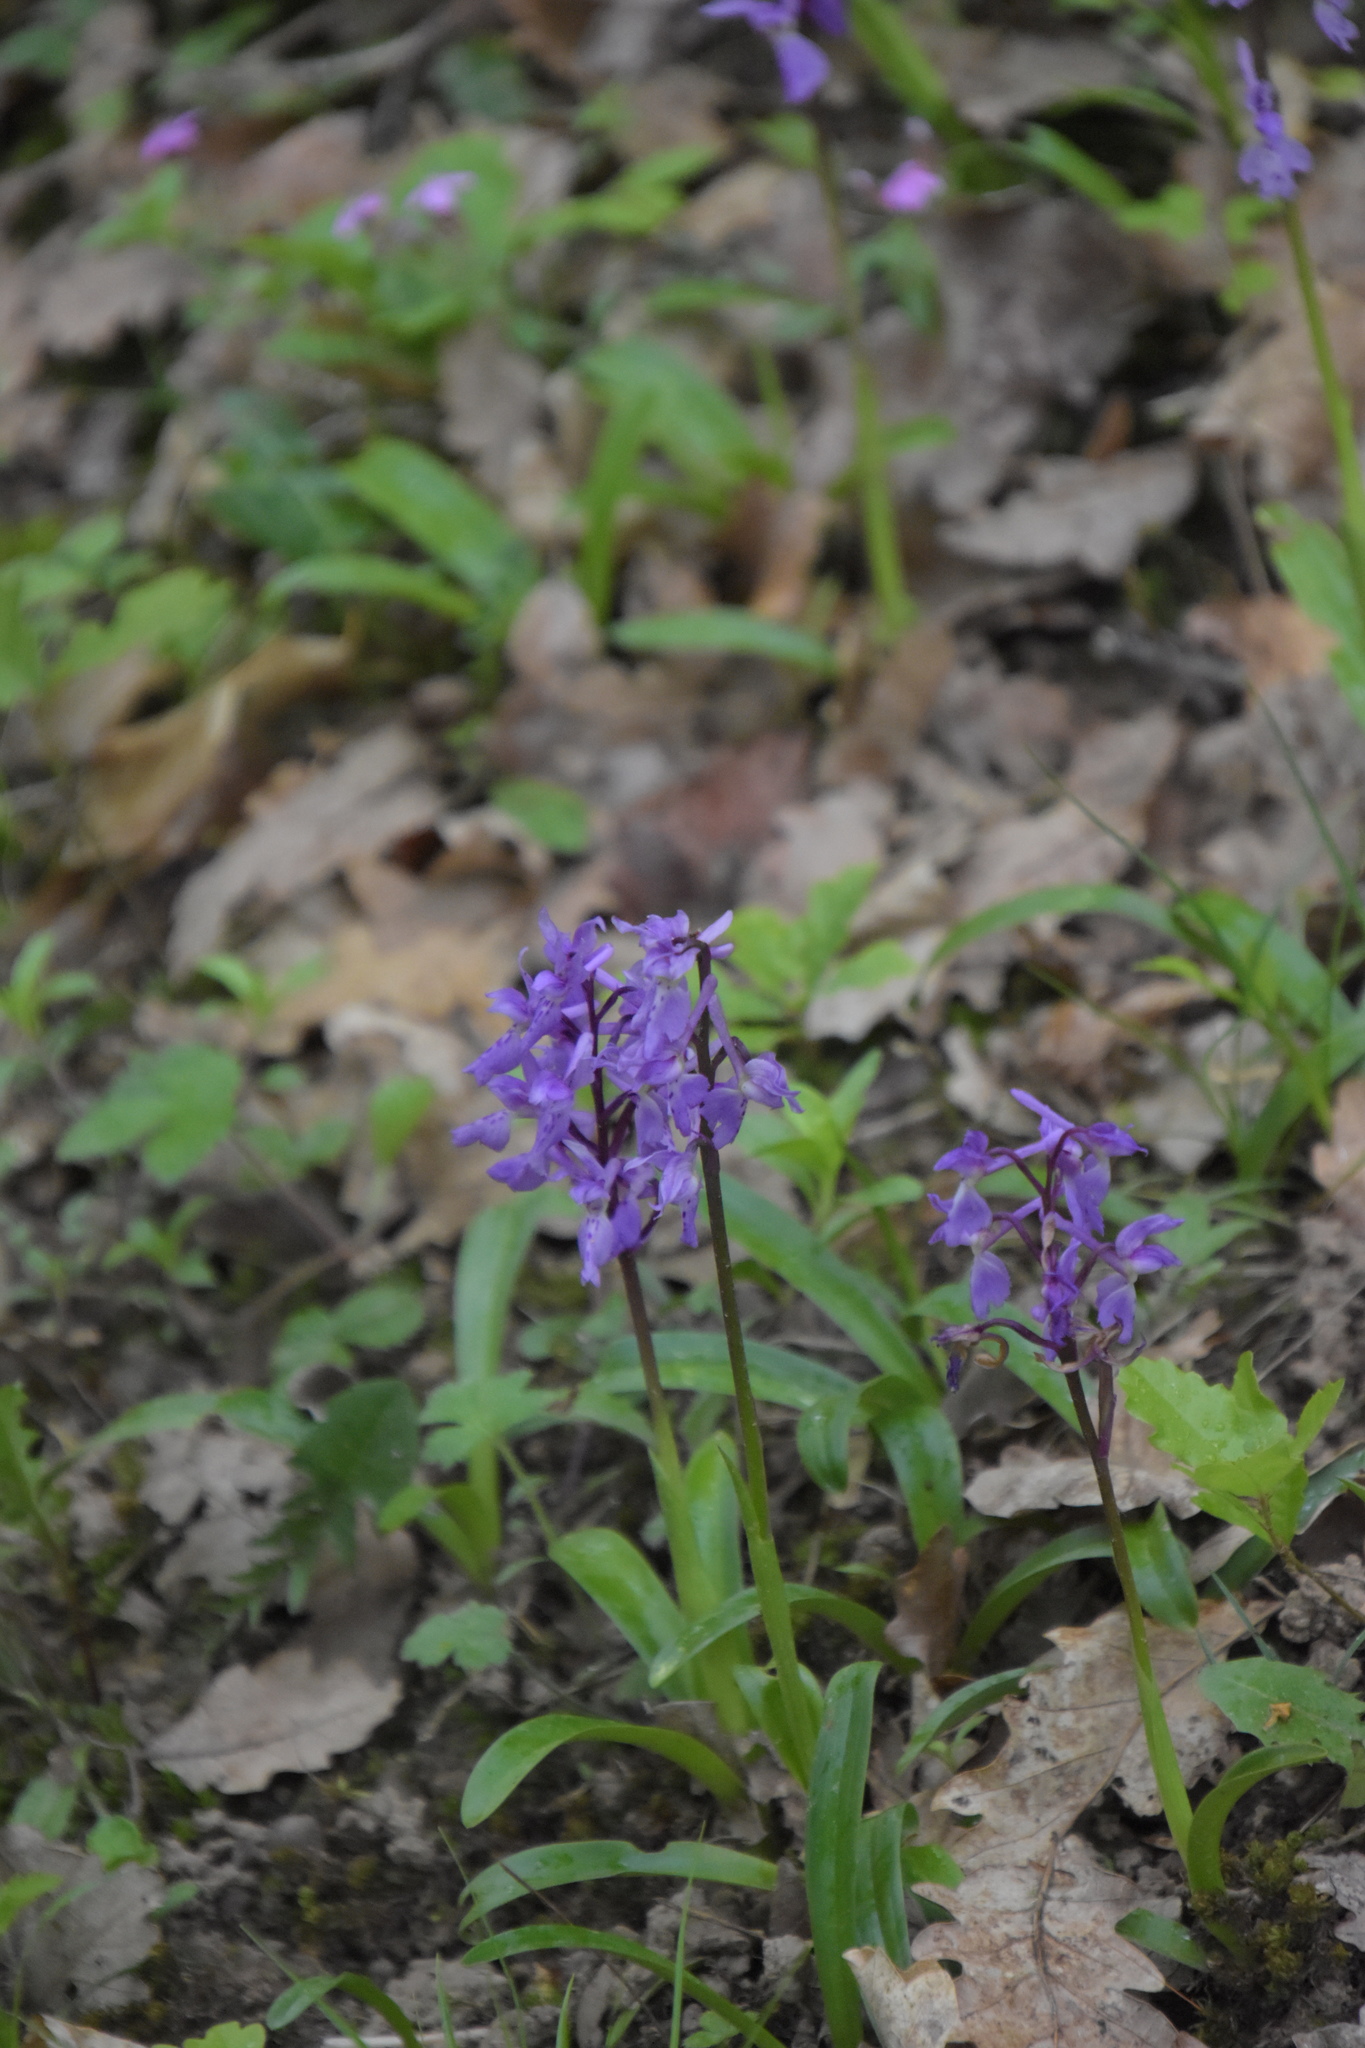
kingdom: Plantae
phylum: Tracheophyta
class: Liliopsida
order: Asparagales
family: Orchidaceae
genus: Orchis
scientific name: Orchis mascula
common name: Early-purple orchid
